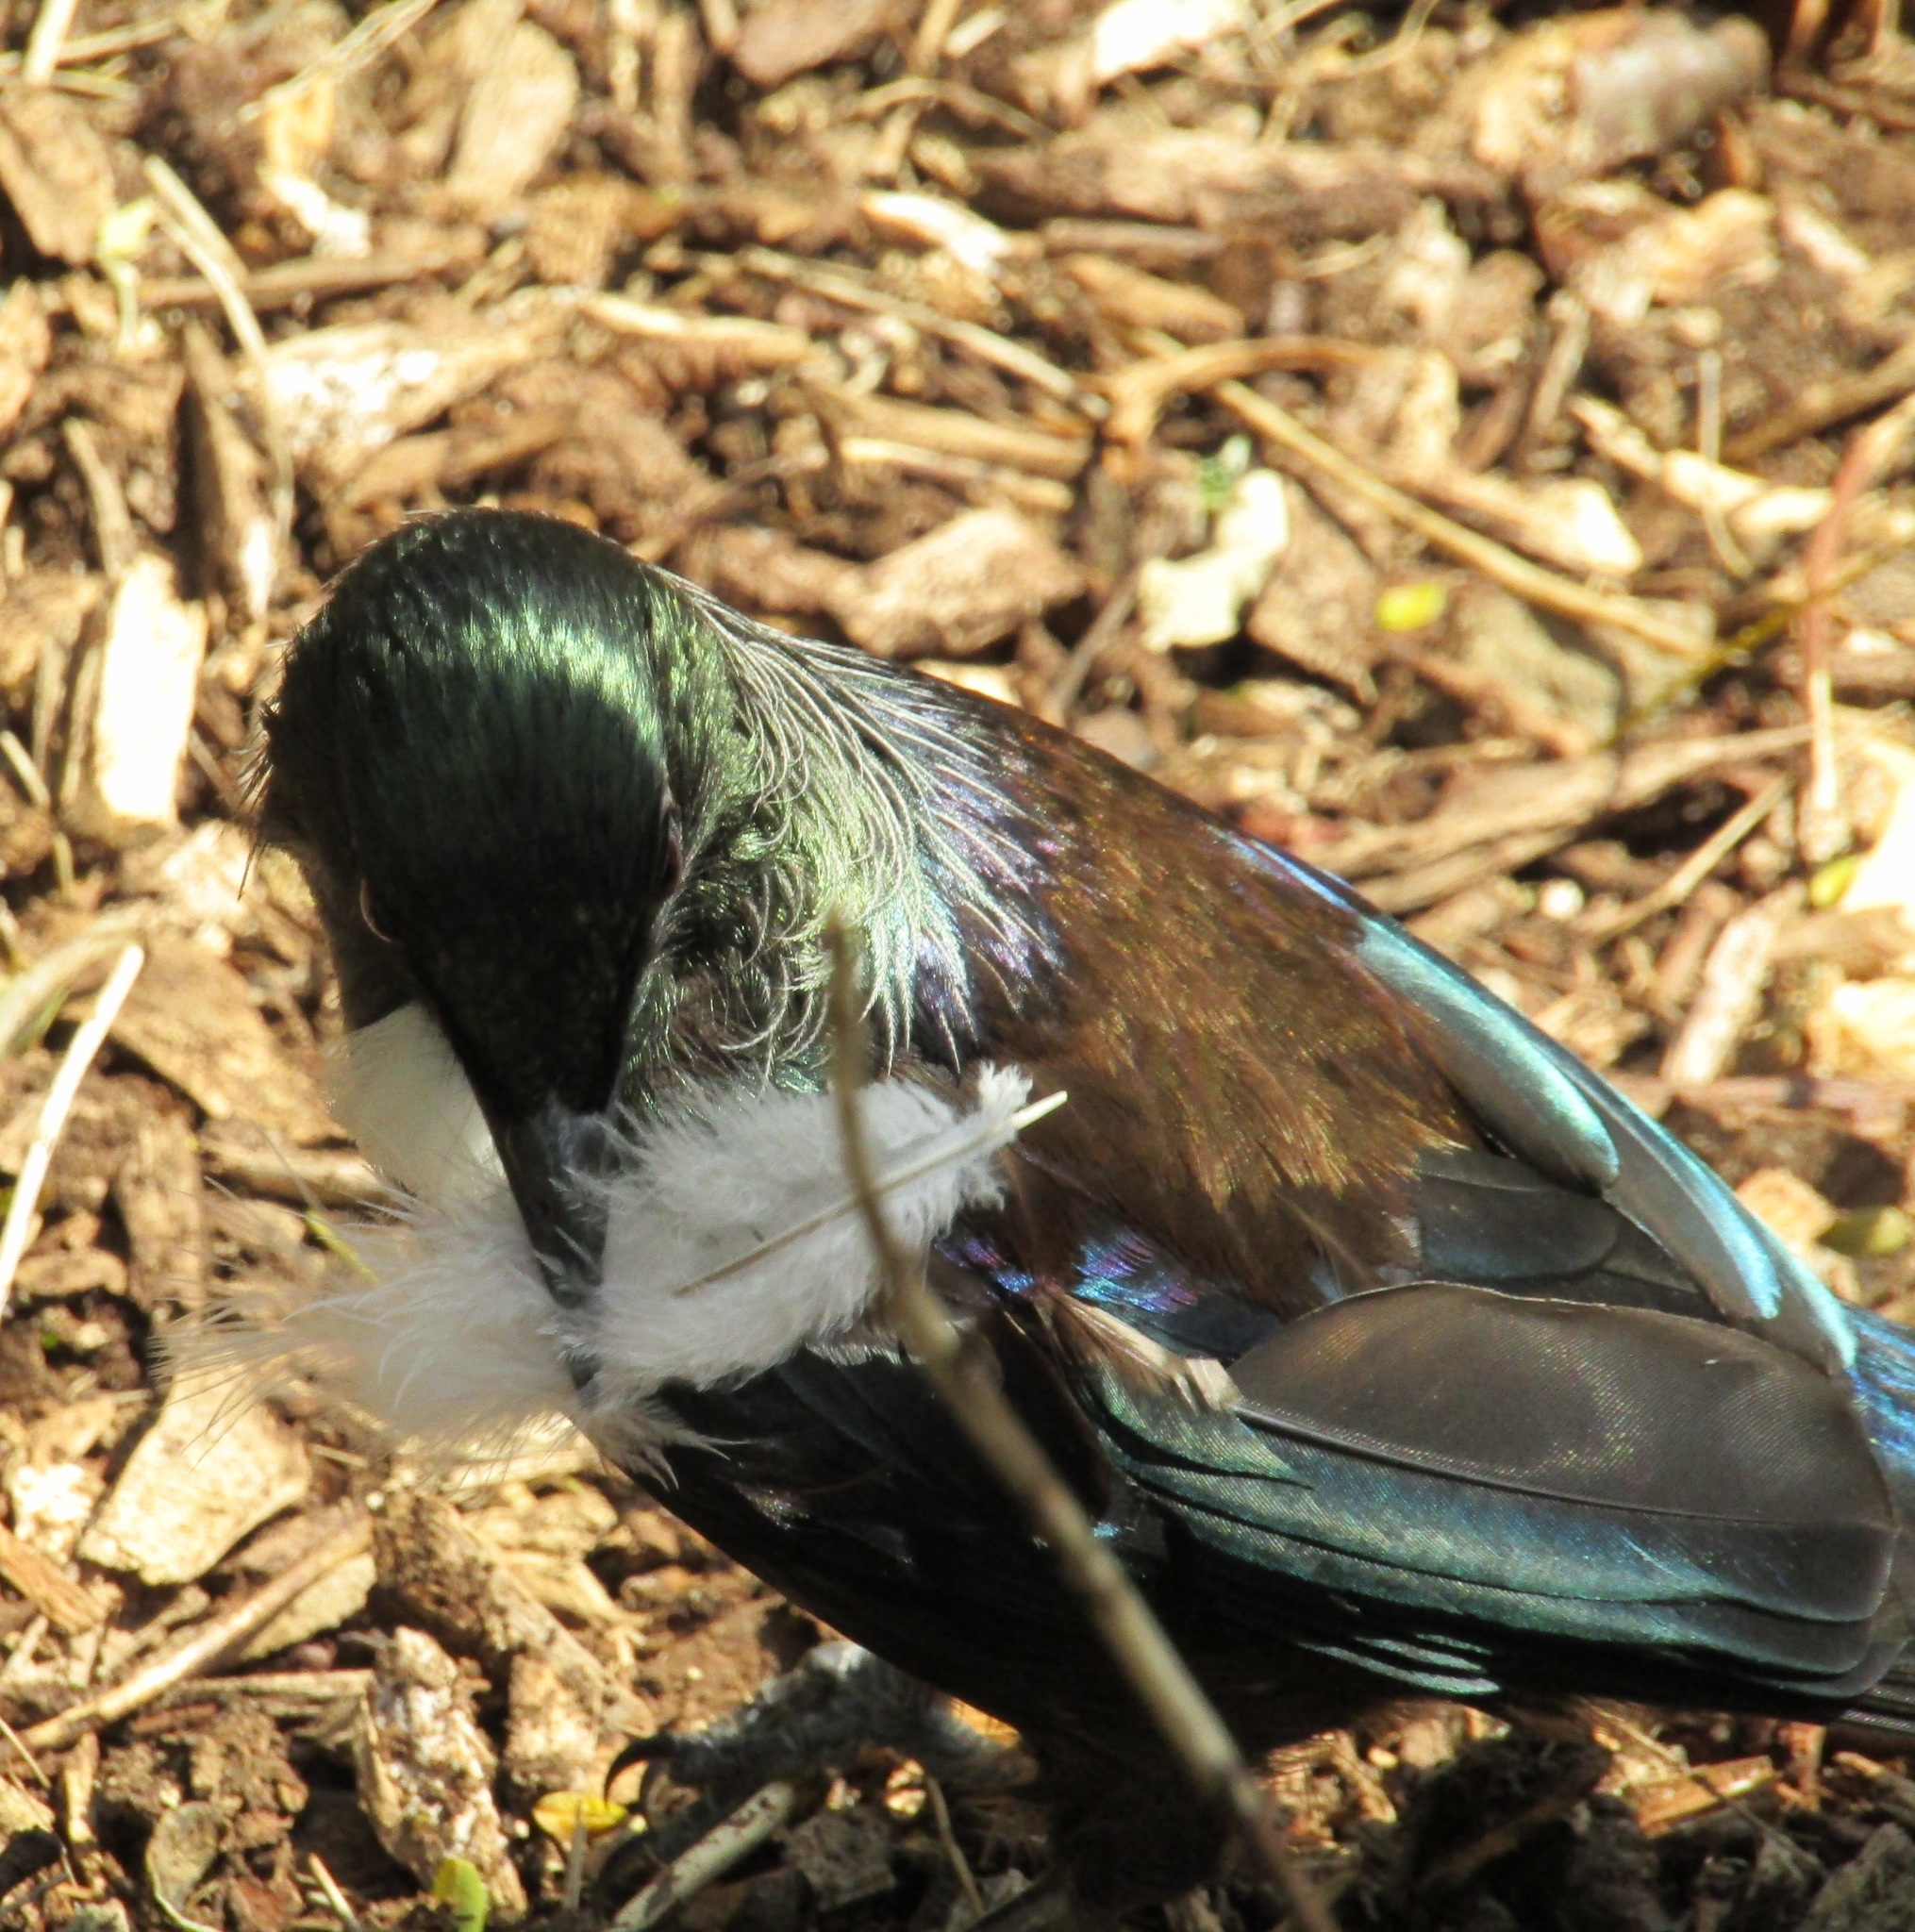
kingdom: Animalia
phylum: Chordata
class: Aves
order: Passeriformes
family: Meliphagidae
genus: Prosthemadera
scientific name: Prosthemadera novaeseelandiae
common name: Tui
